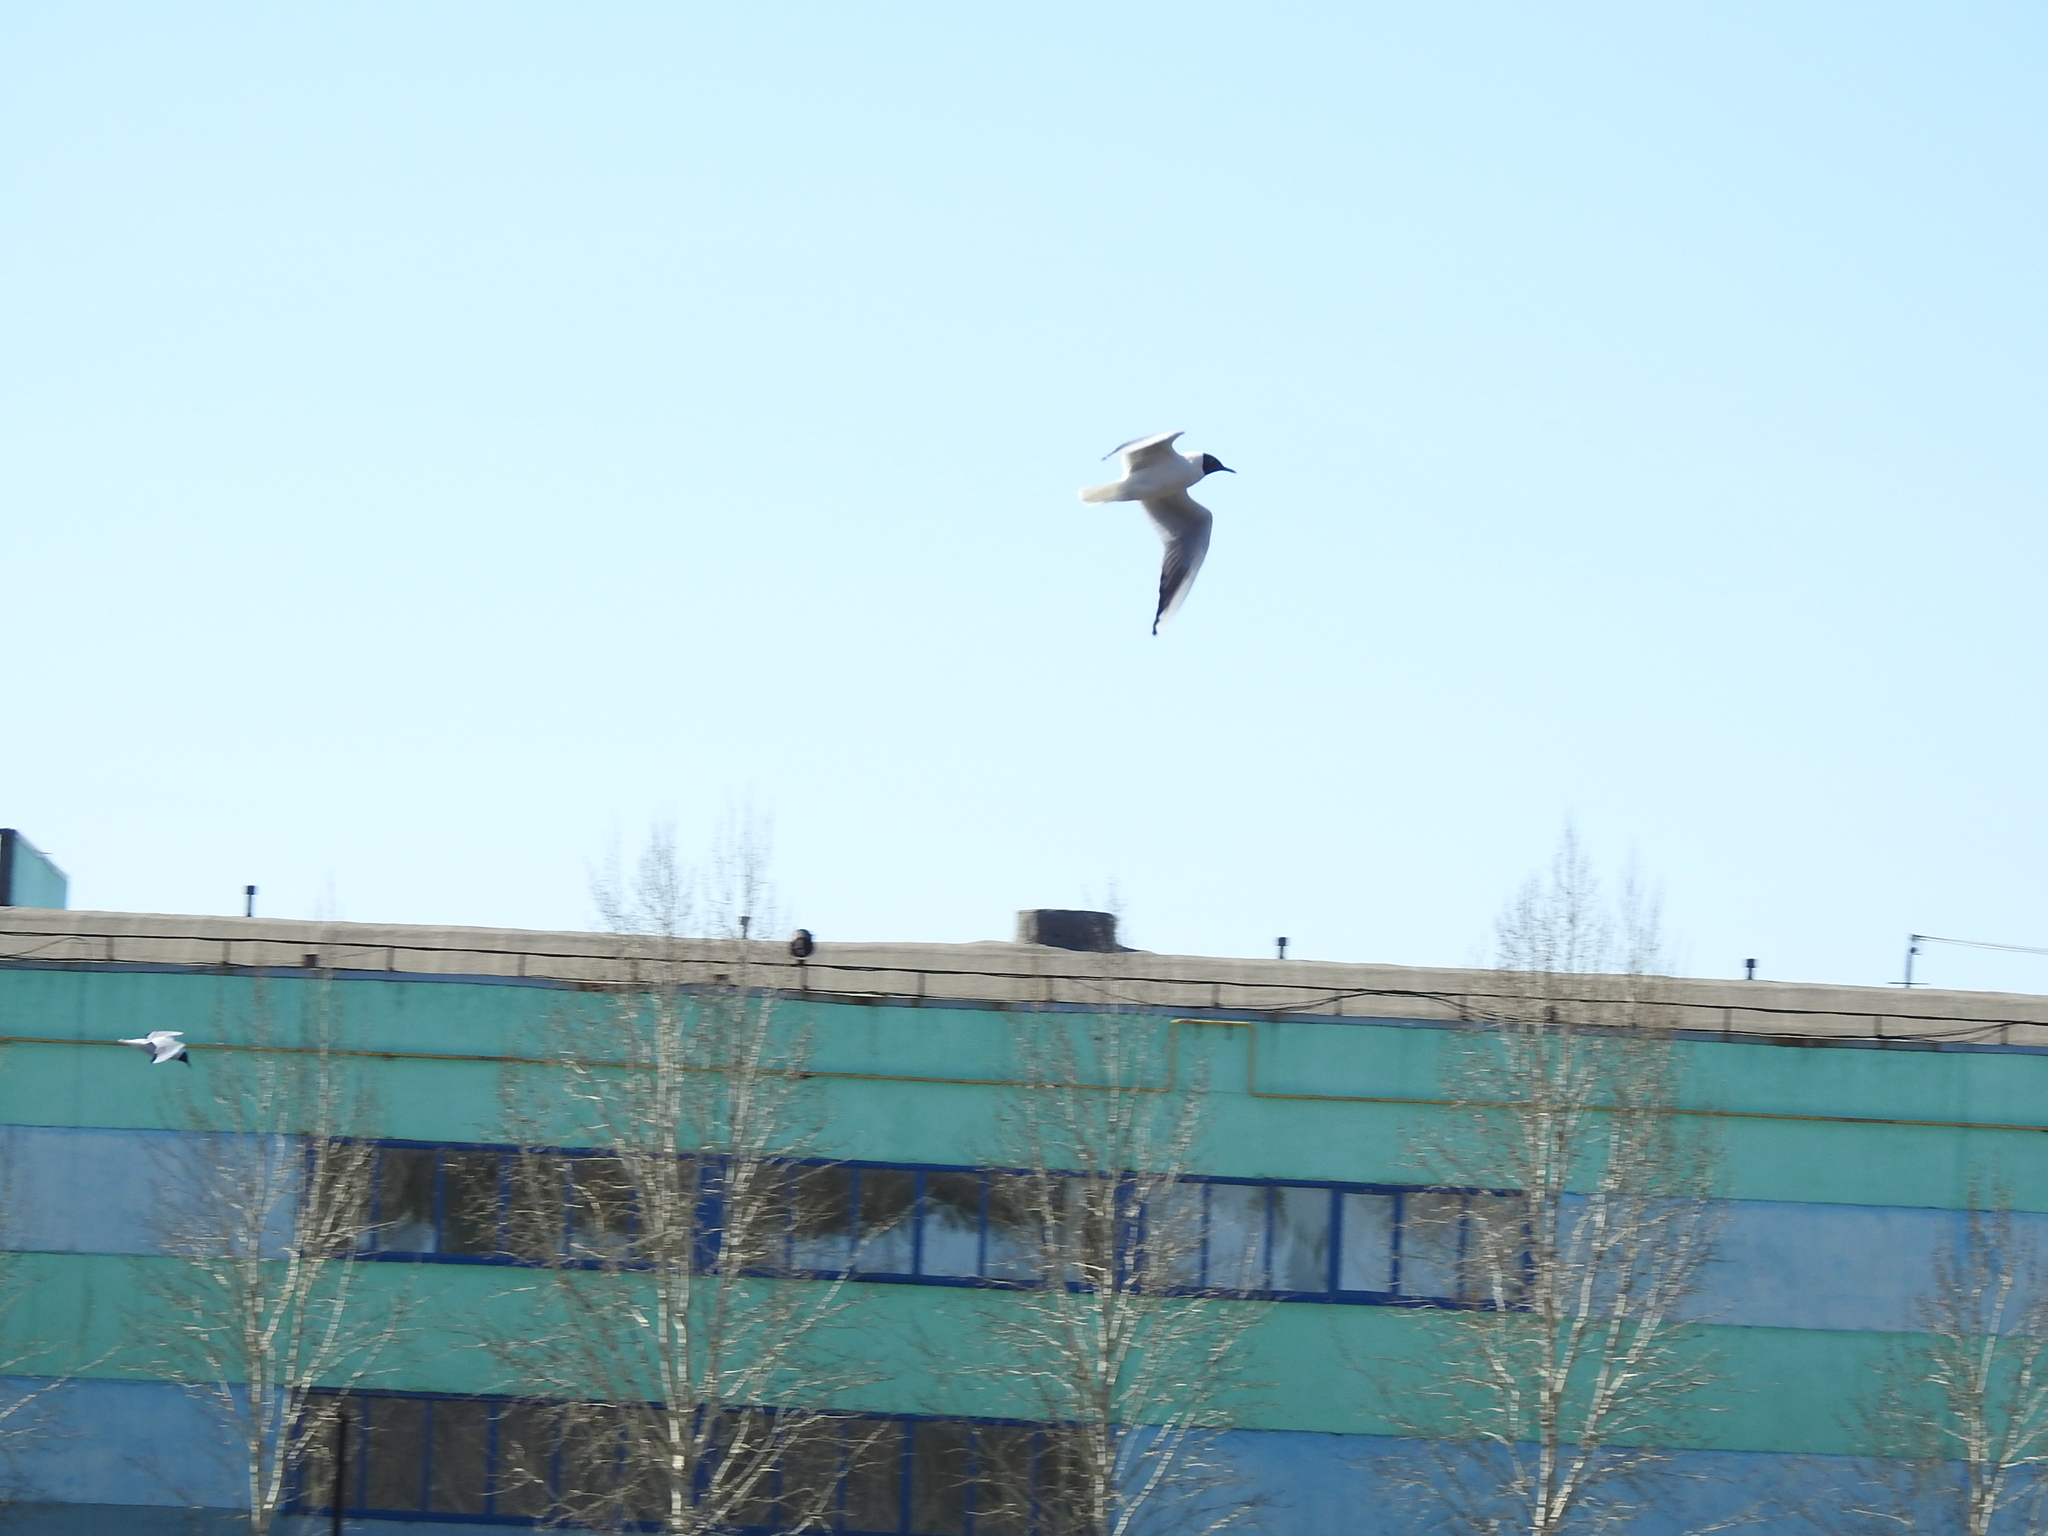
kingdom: Animalia
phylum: Chordata
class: Aves
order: Charadriiformes
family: Laridae
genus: Chroicocephalus
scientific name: Chroicocephalus ridibundus
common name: Black-headed gull
